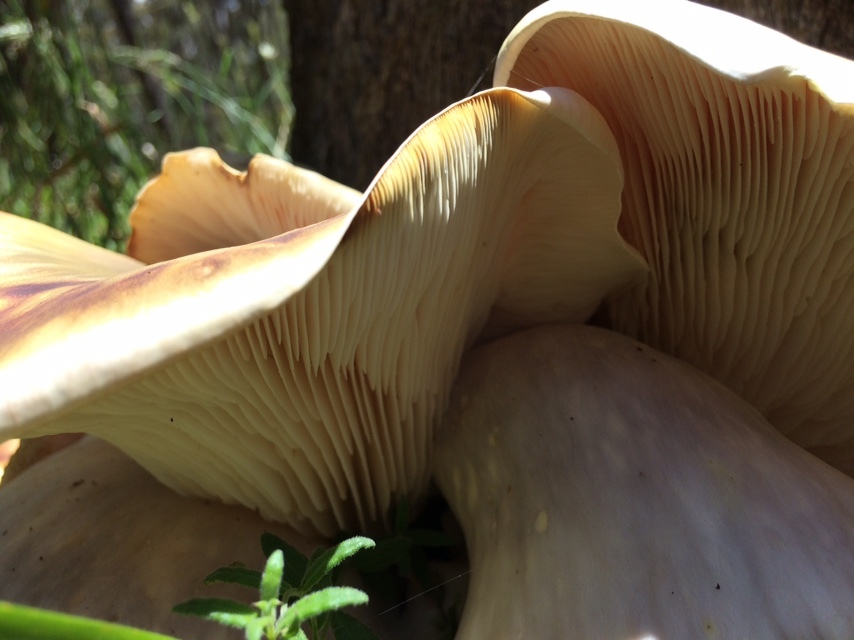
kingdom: Fungi
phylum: Basidiomycota
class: Agaricomycetes
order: Agaricales
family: Omphalotaceae
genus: Omphalotus
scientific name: Omphalotus nidiformis
